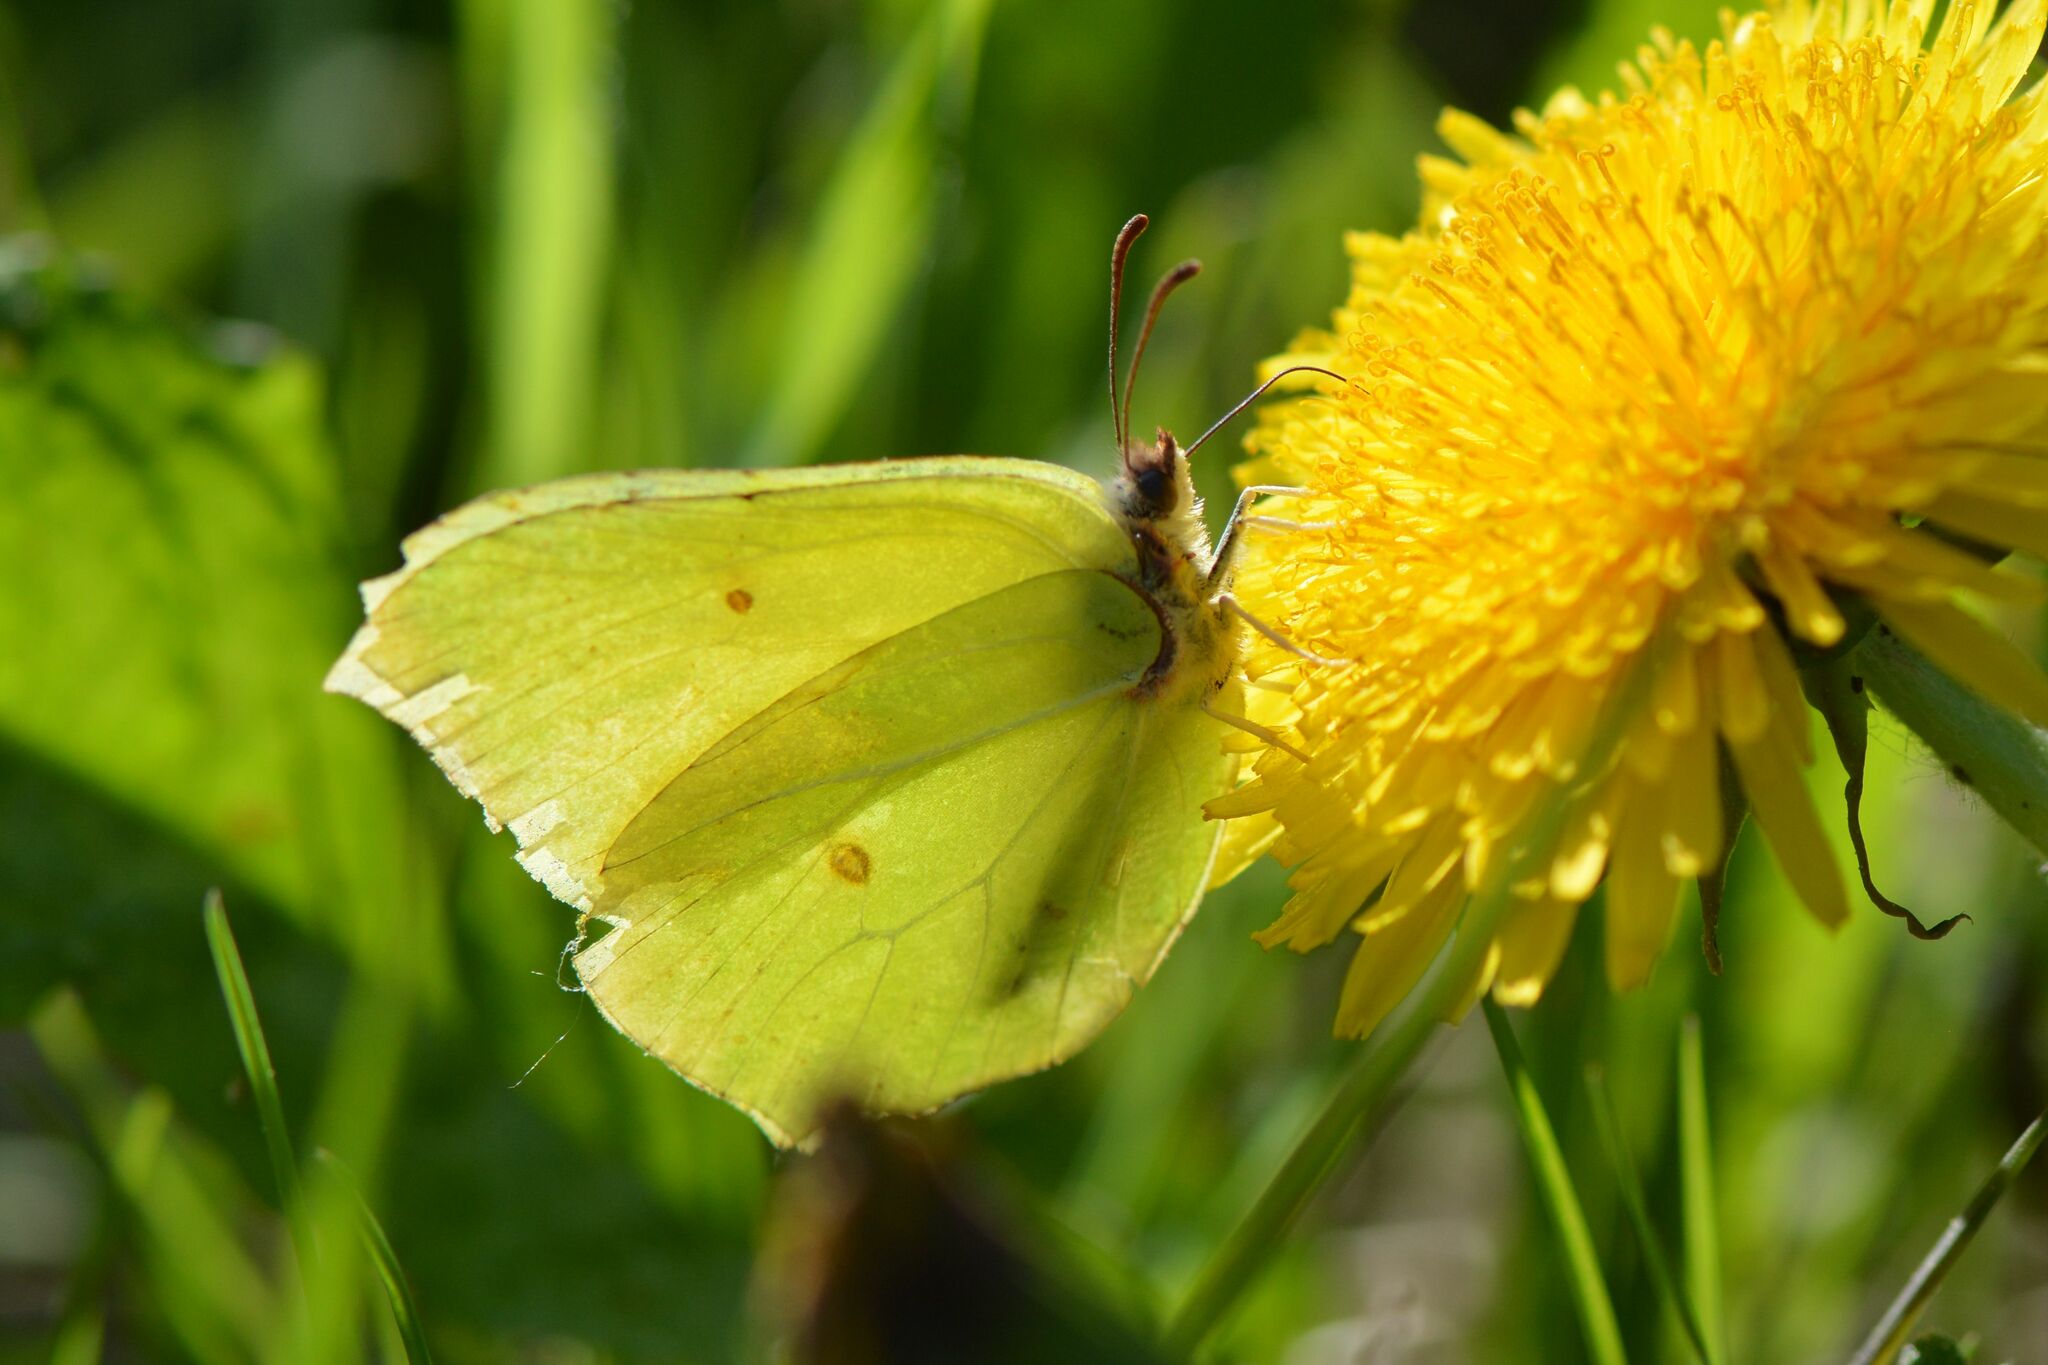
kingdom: Animalia
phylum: Arthropoda
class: Insecta
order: Lepidoptera
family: Pieridae
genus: Gonepteryx
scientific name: Gonepteryx rhamni
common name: Brimstone
